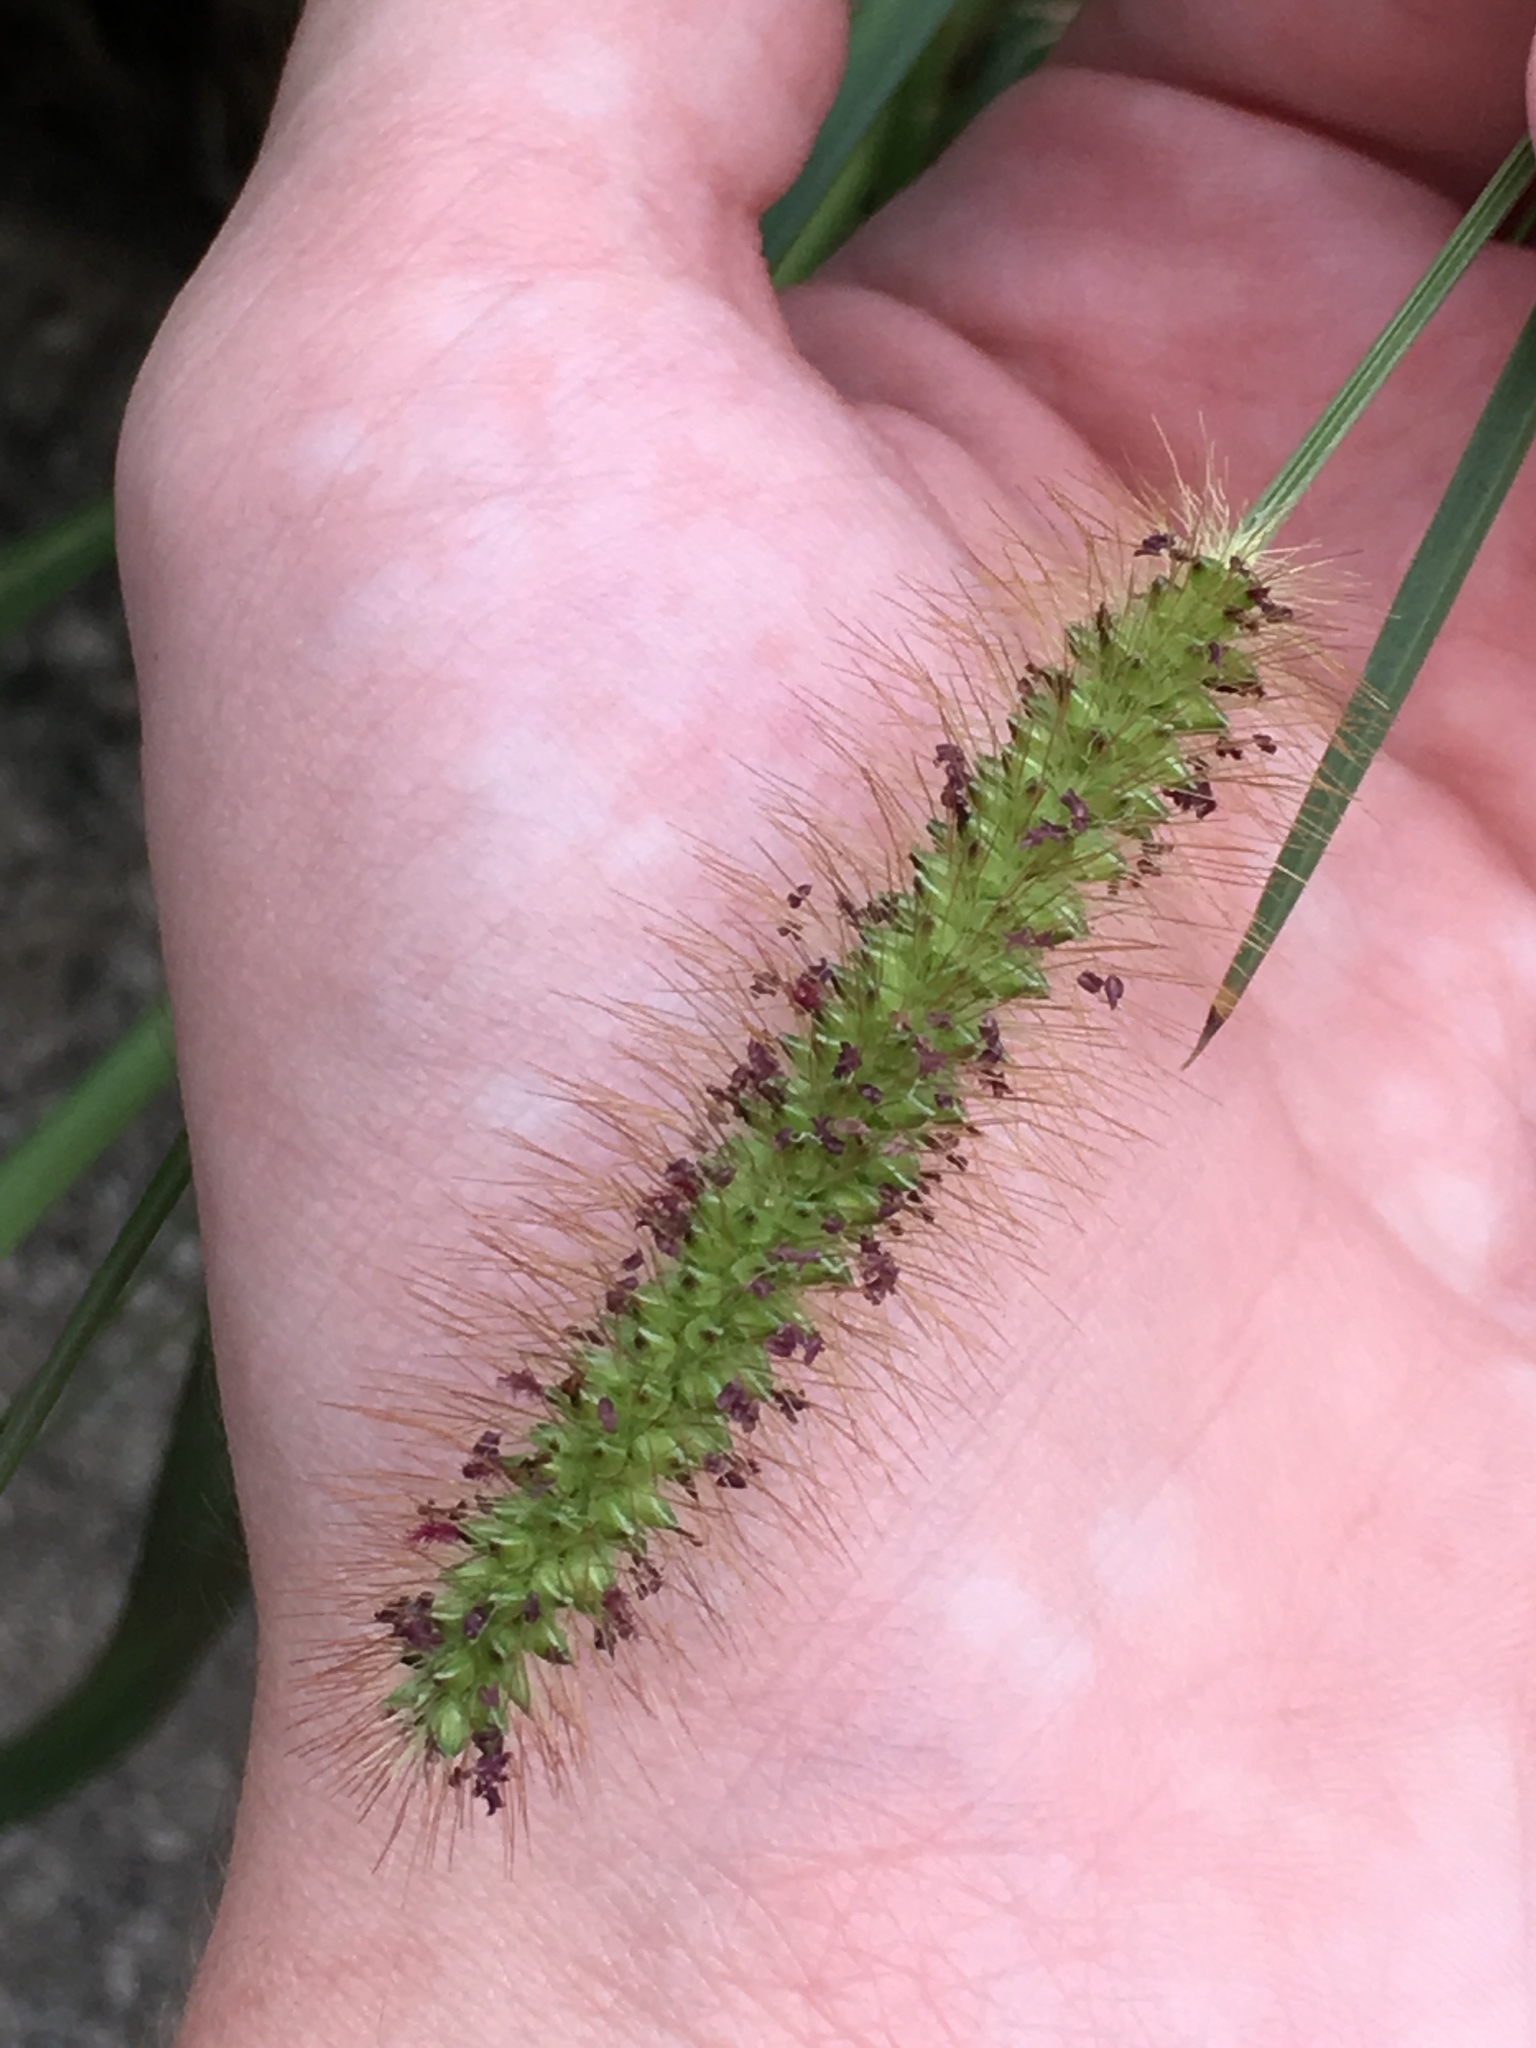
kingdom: Plantae
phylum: Tracheophyta
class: Liliopsida
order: Poales
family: Poaceae
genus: Setaria
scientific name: Setaria parviflora
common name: Knotroot bristle-grass
